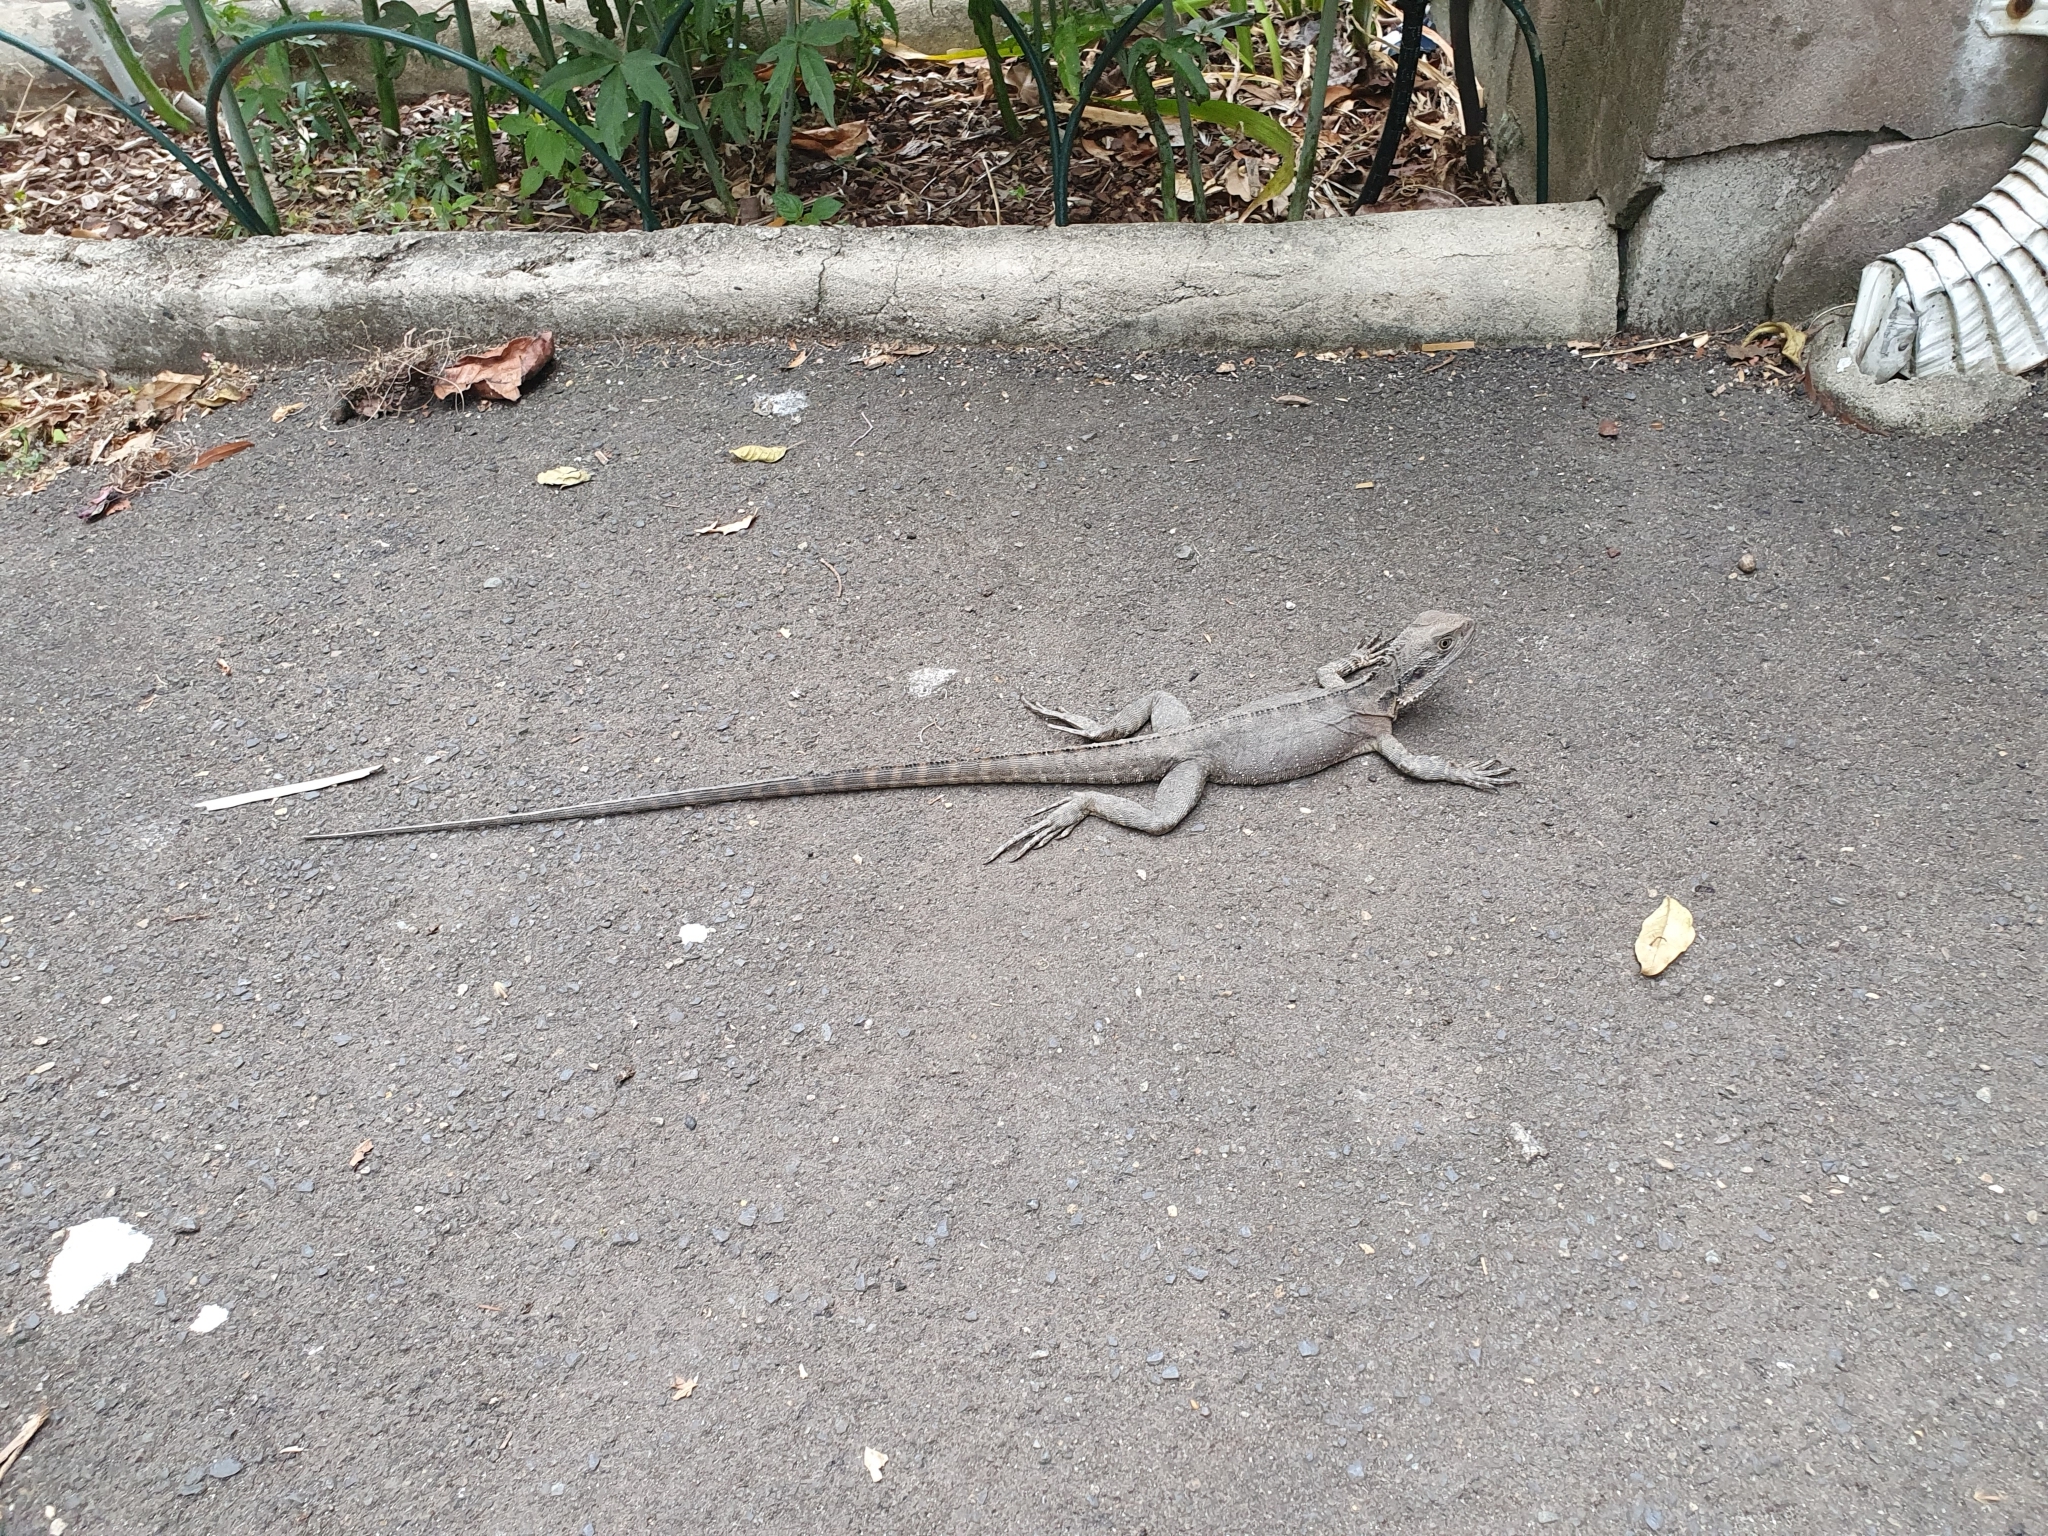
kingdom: Animalia
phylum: Chordata
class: Squamata
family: Agamidae
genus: Intellagama
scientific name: Intellagama lesueurii
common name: Eastern water dragon
